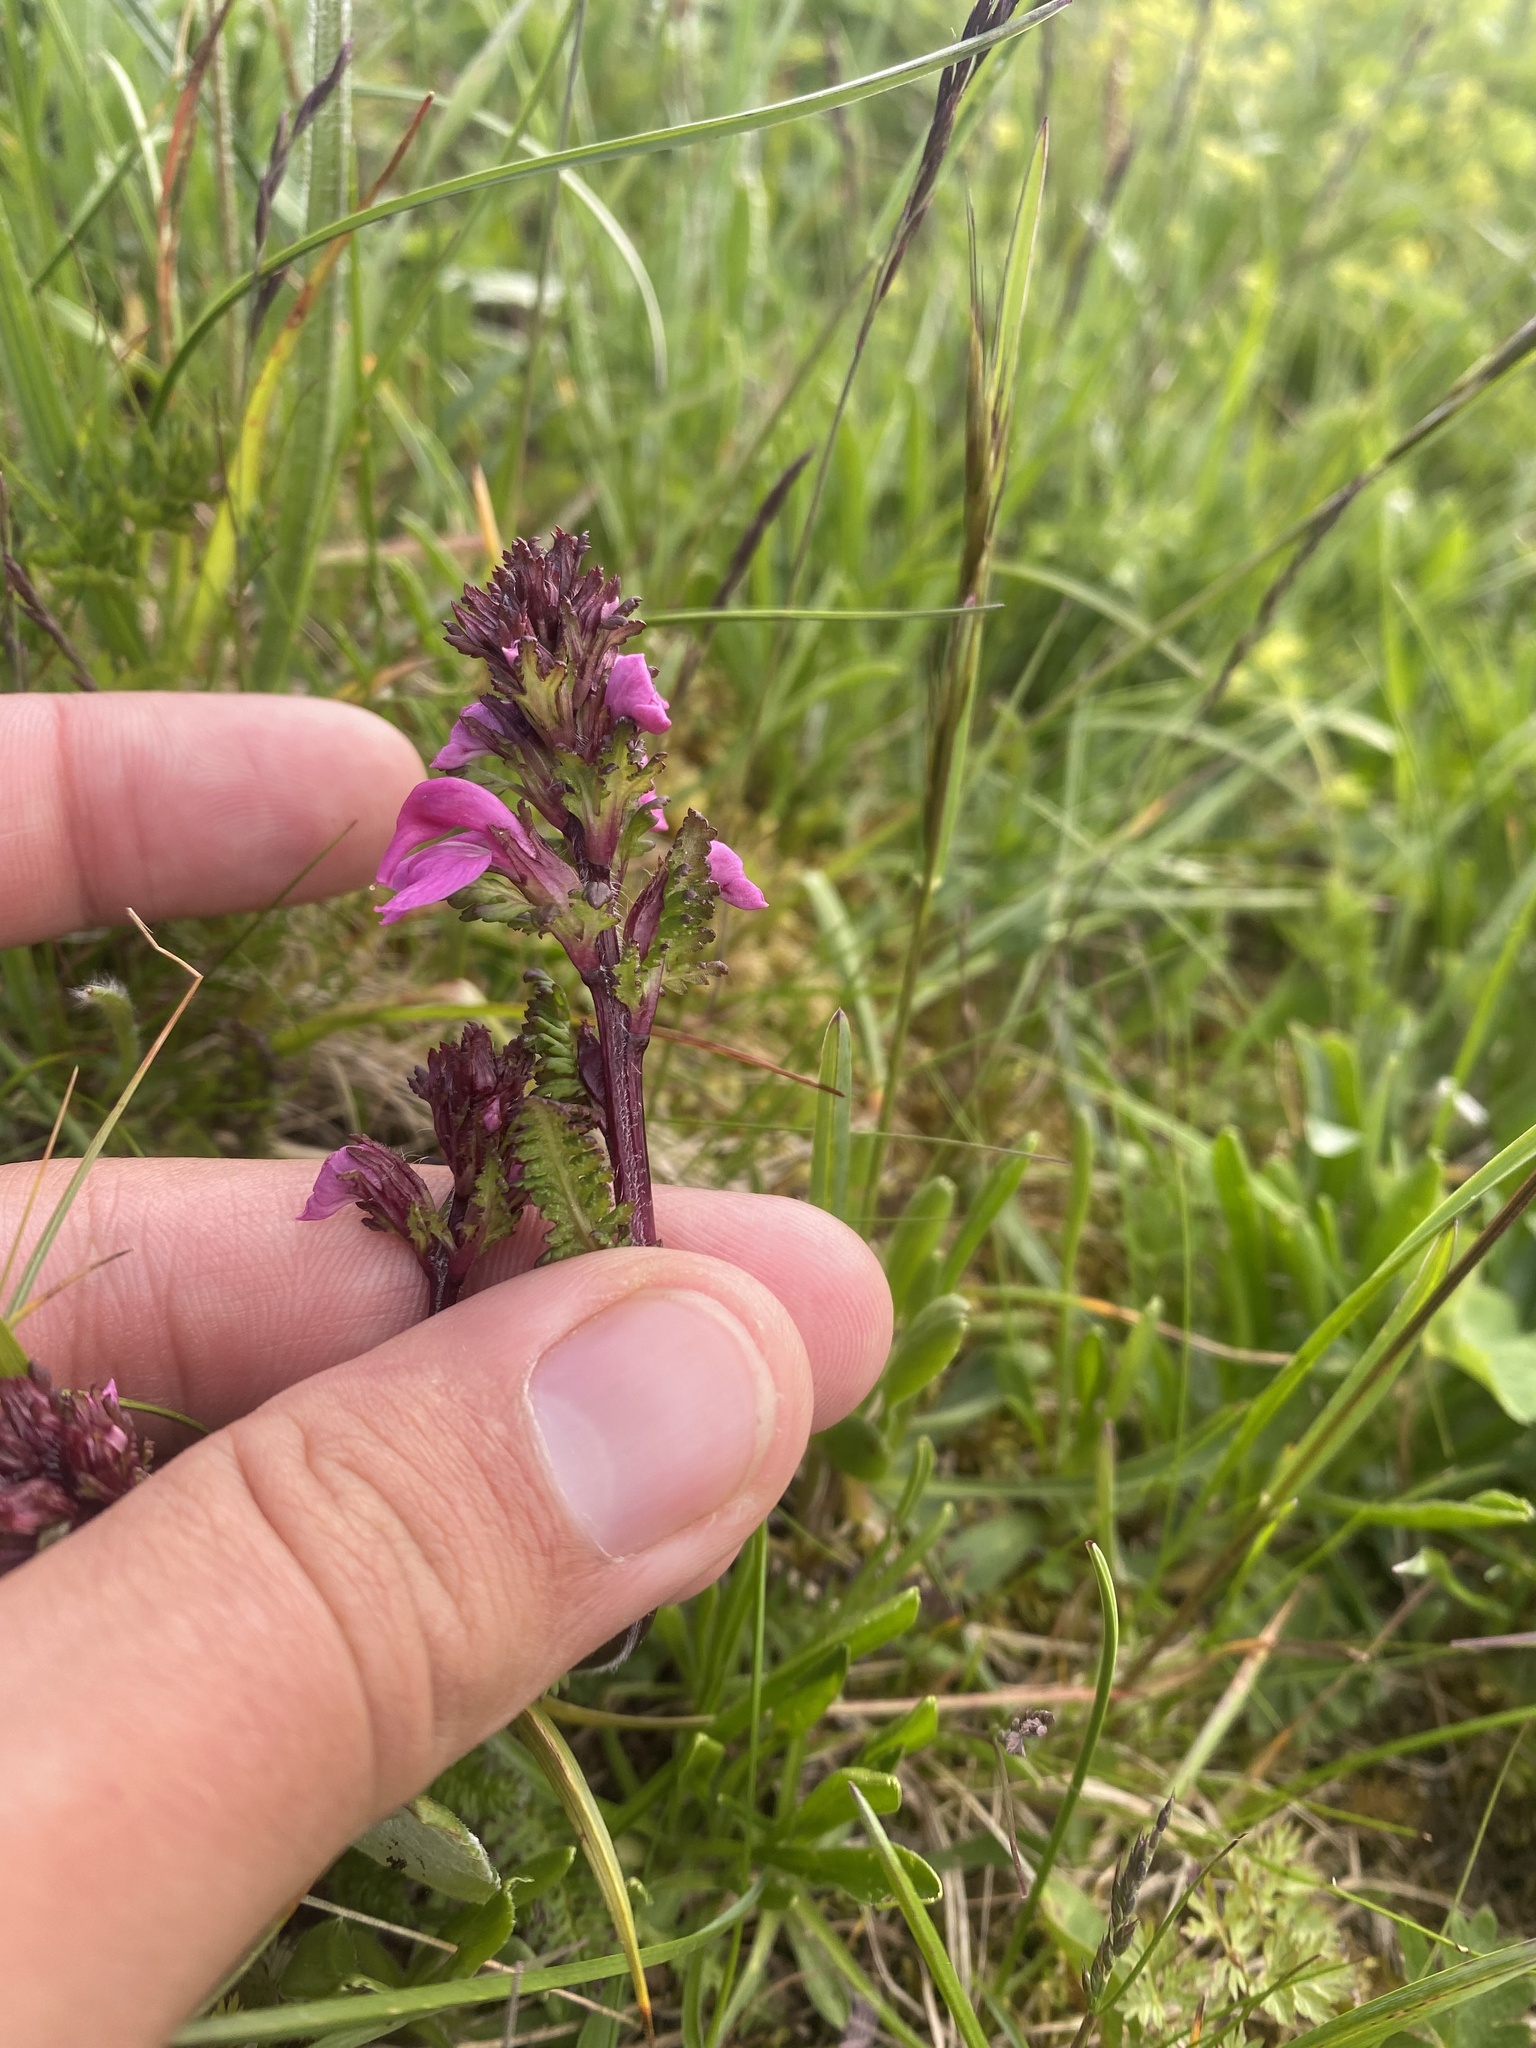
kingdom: Plantae
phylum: Tracheophyta
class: Magnoliopsida
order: Lamiales
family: Orobanchaceae
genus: Pedicularis
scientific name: Pedicularis nordmanniana
